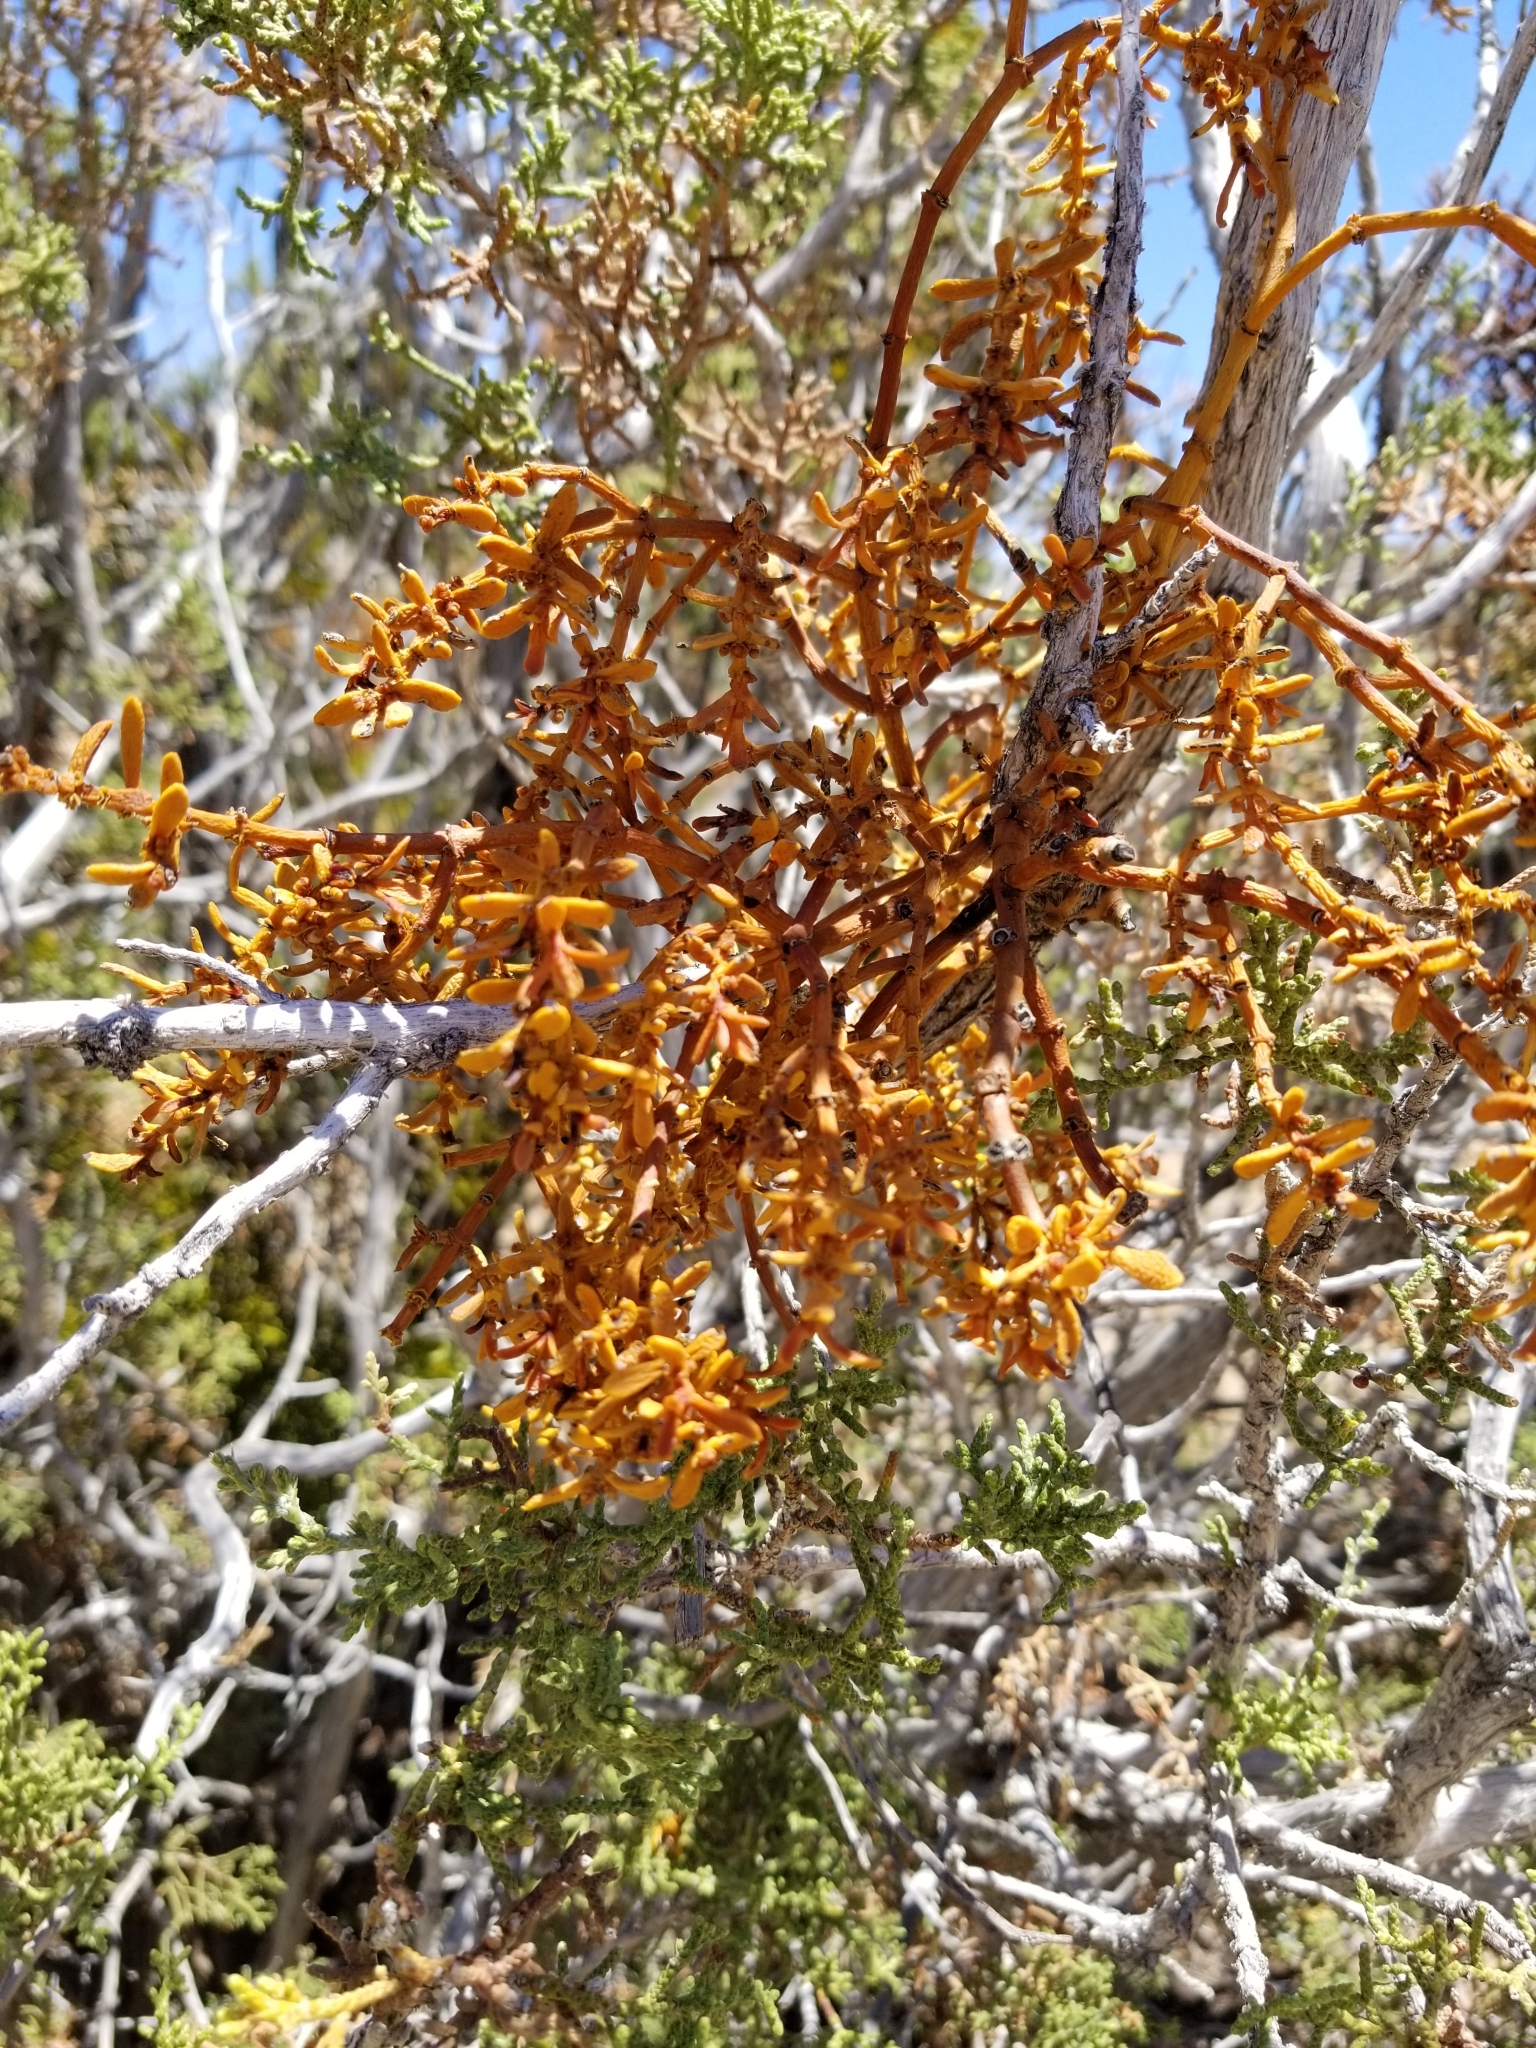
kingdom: Plantae
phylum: Tracheophyta
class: Magnoliopsida
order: Santalales
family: Viscaceae
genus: Phoradendron
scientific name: Phoradendron bolleanum
